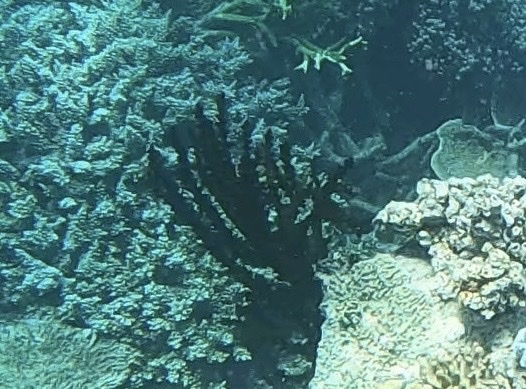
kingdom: Animalia
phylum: Cnidaria
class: Anthozoa
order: Scleractinia
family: Dendrophylliidae
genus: Tubastraea
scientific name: Tubastraea micranthus
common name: Black sun coral
